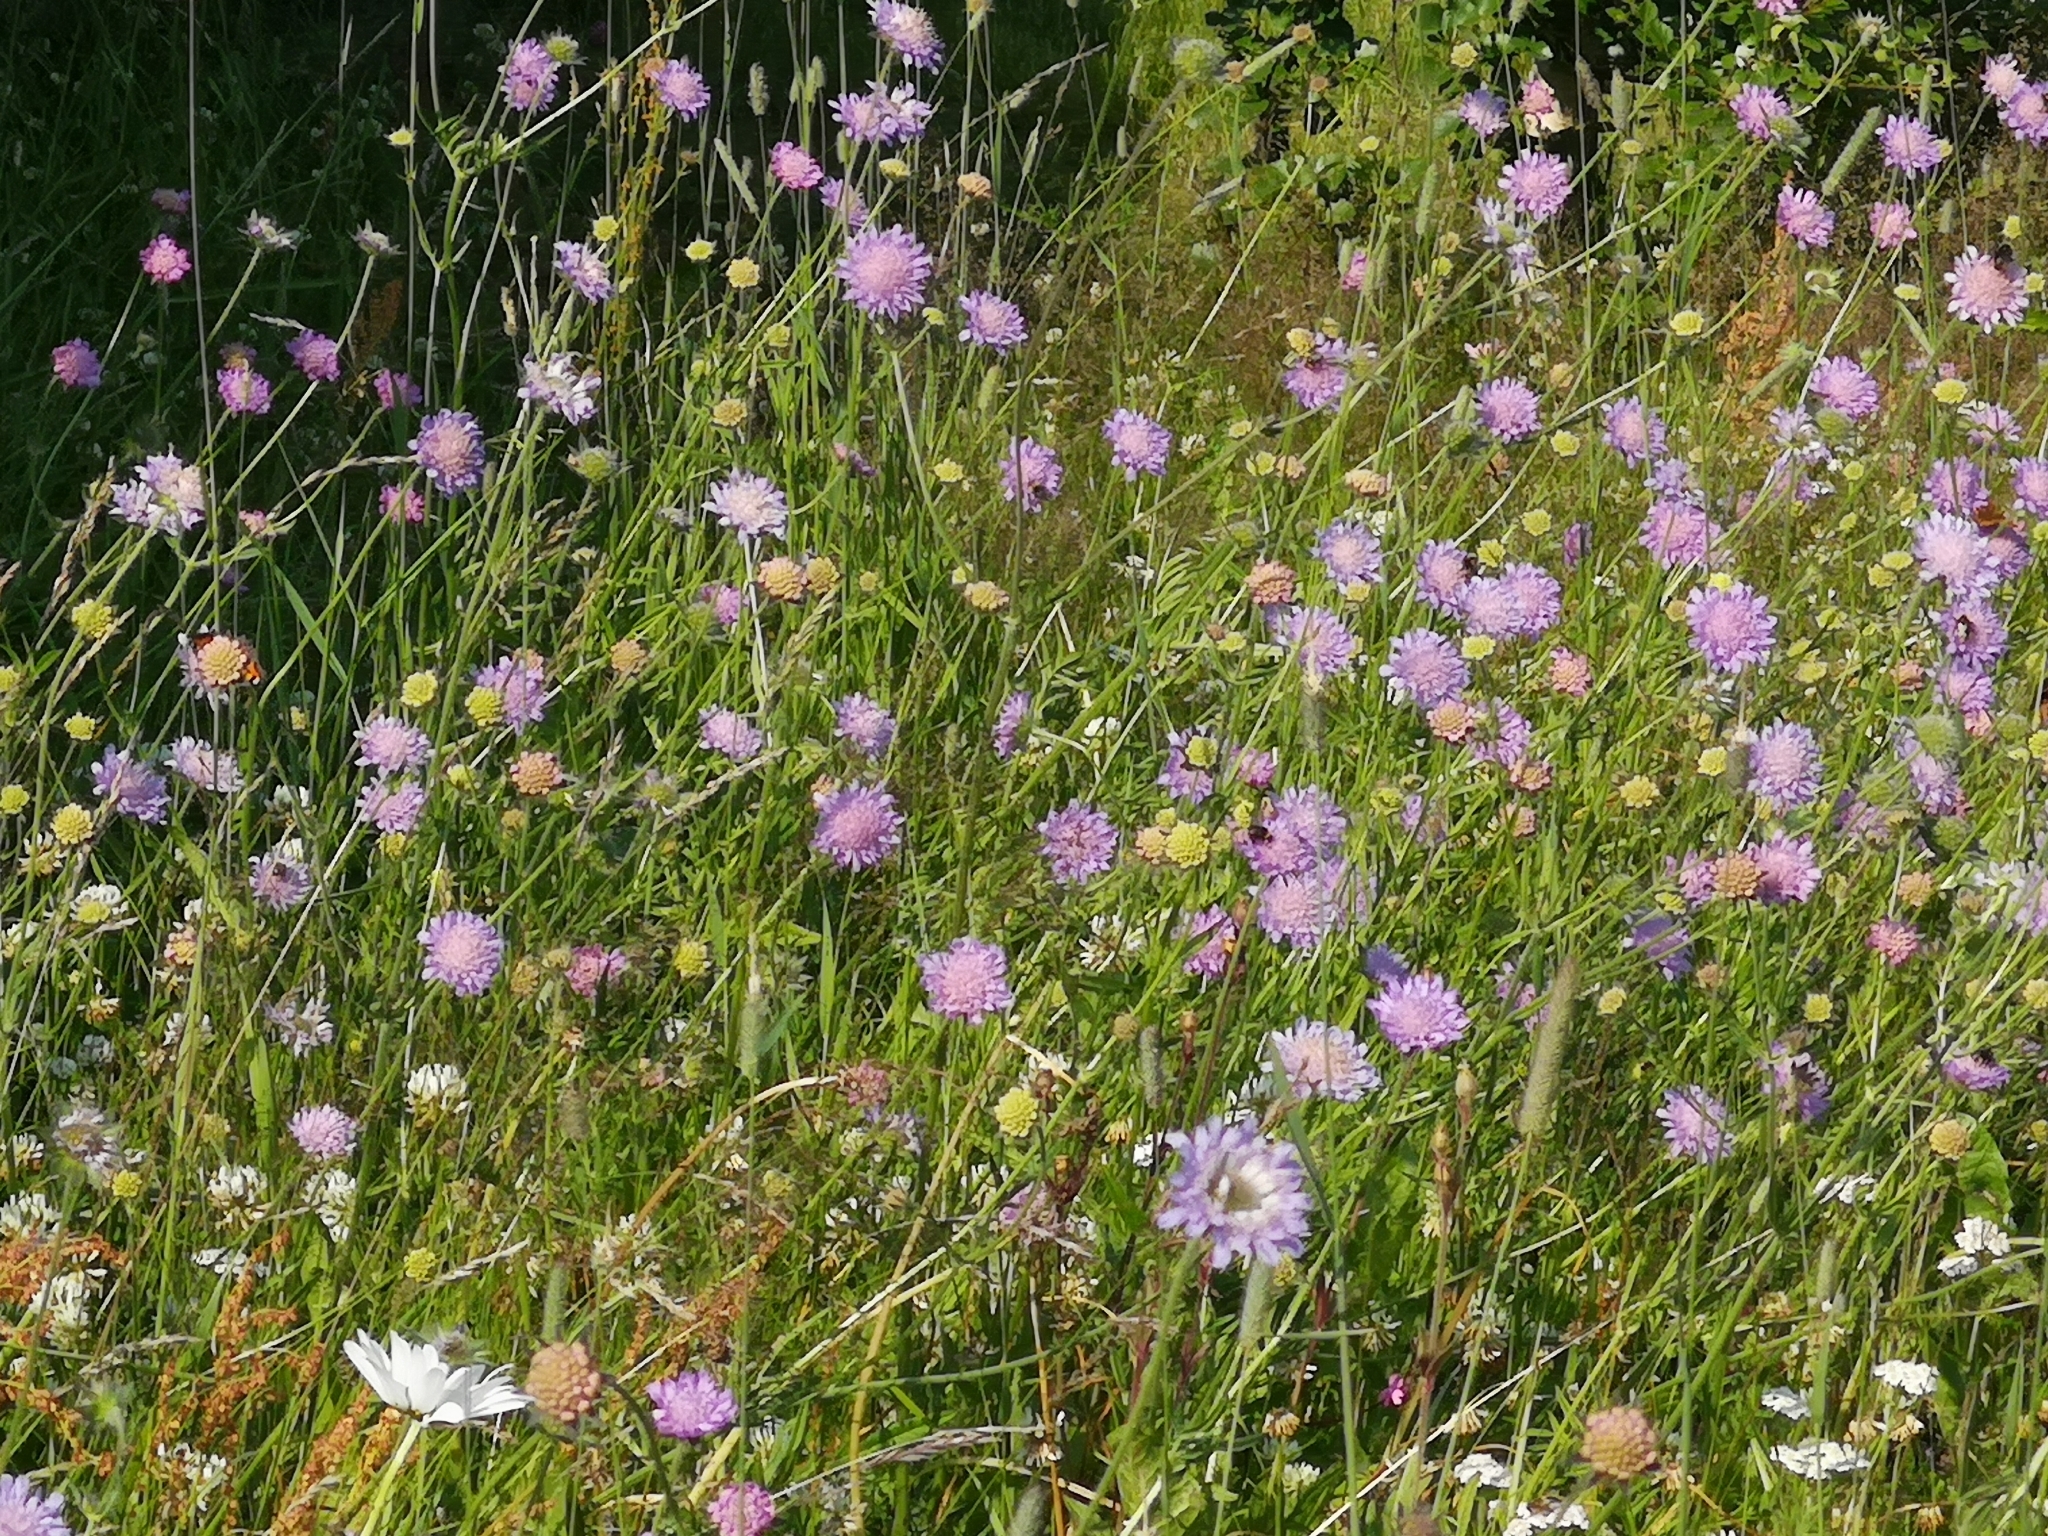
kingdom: Plantae
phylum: Tracheophyta
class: Magnoliopsida
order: Dipsacales
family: Caprifoliaceae
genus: Knautia
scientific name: Knautia arvensis
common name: Field scabiosa
